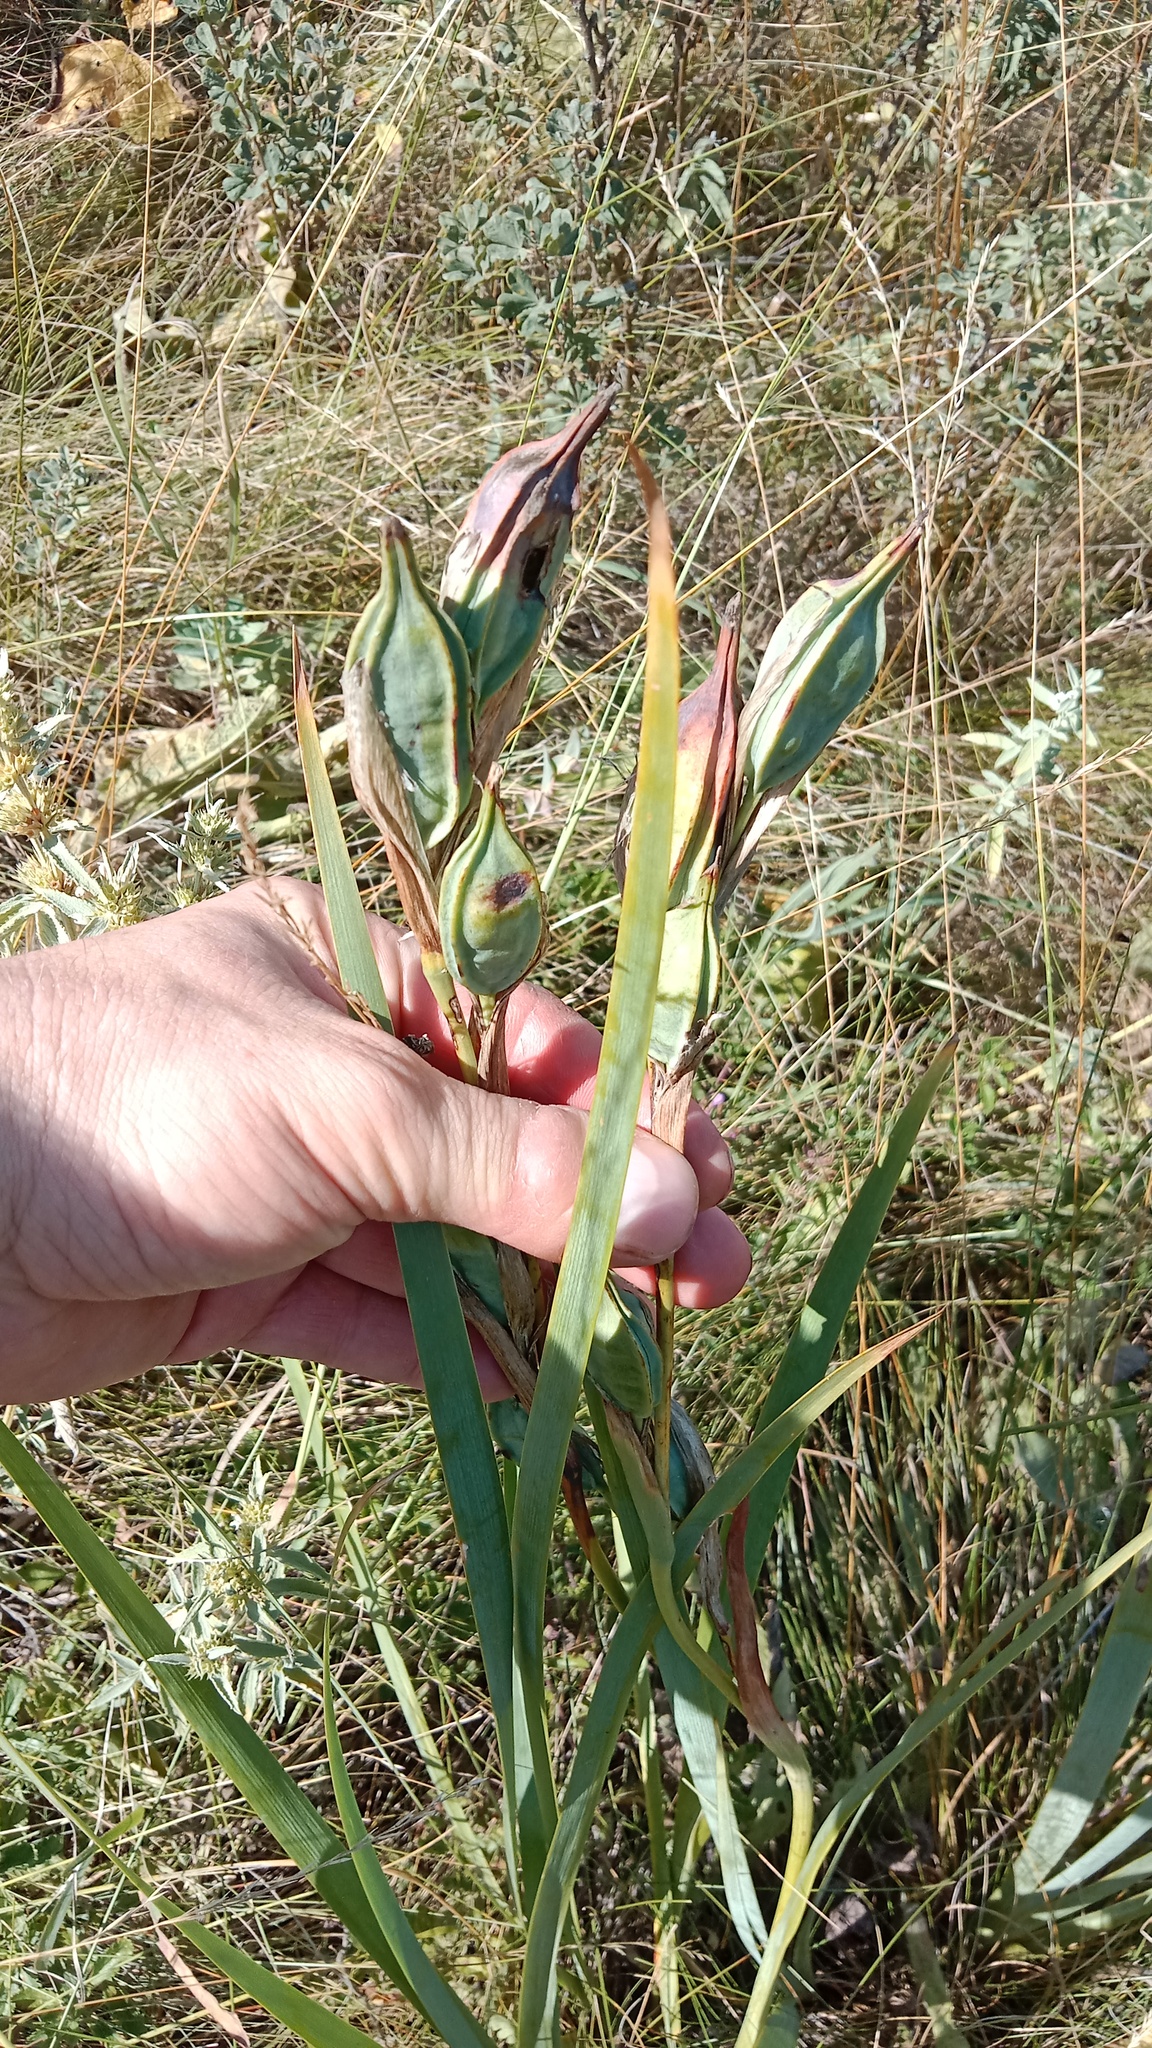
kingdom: Plantae
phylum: Tracheophyta
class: Liliopsida
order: Asparagales
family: Iridaceae
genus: Iris
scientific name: Iris halophila
